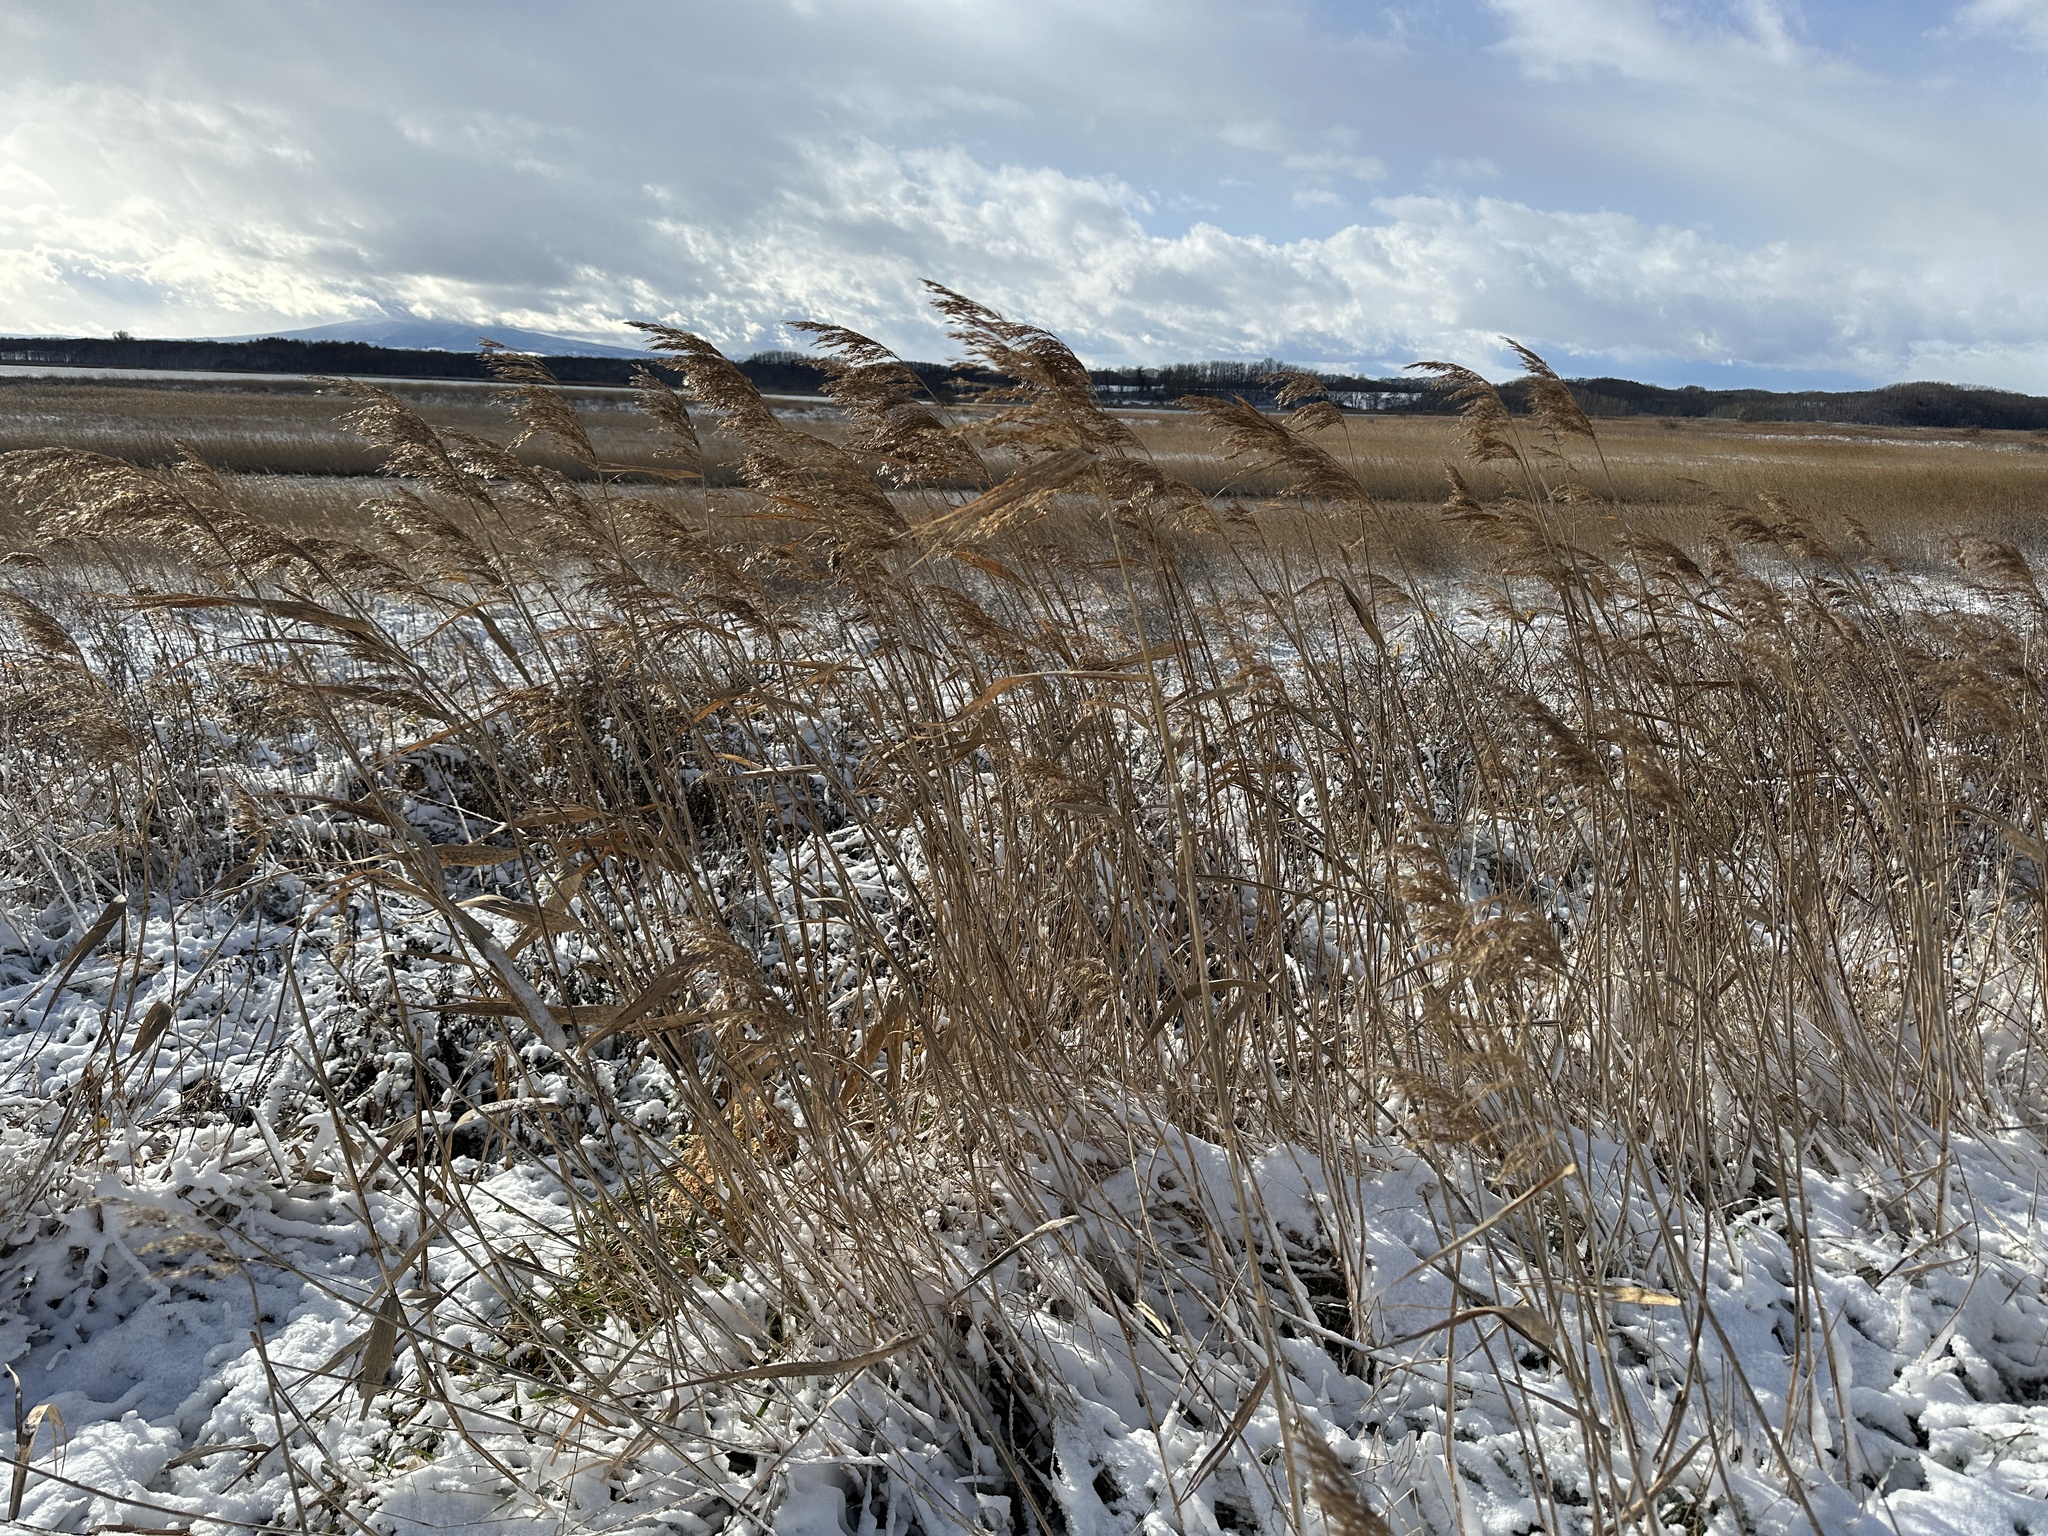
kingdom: Plantae
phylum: Tracheophyta
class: Liliopsida
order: Poales
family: Poaceae
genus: Phragmites
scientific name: Phragmites australis
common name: Common reed
